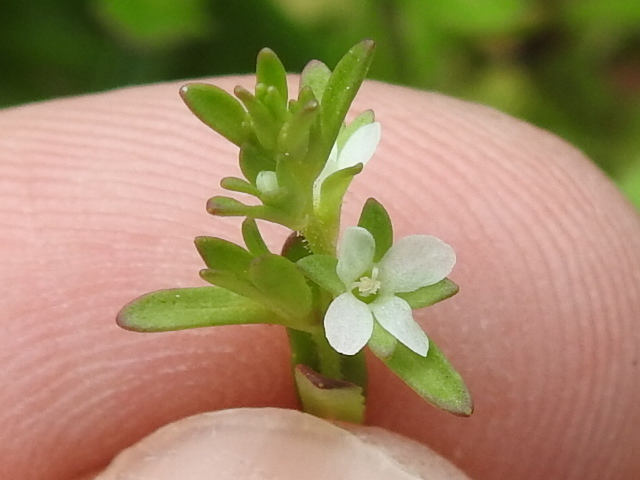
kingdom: Plantae
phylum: Tracheophyta
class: Magnoliopsida
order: Lamiales
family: Plantaginaceae
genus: Veronica
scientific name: Veronica peregrina
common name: Neckweed
